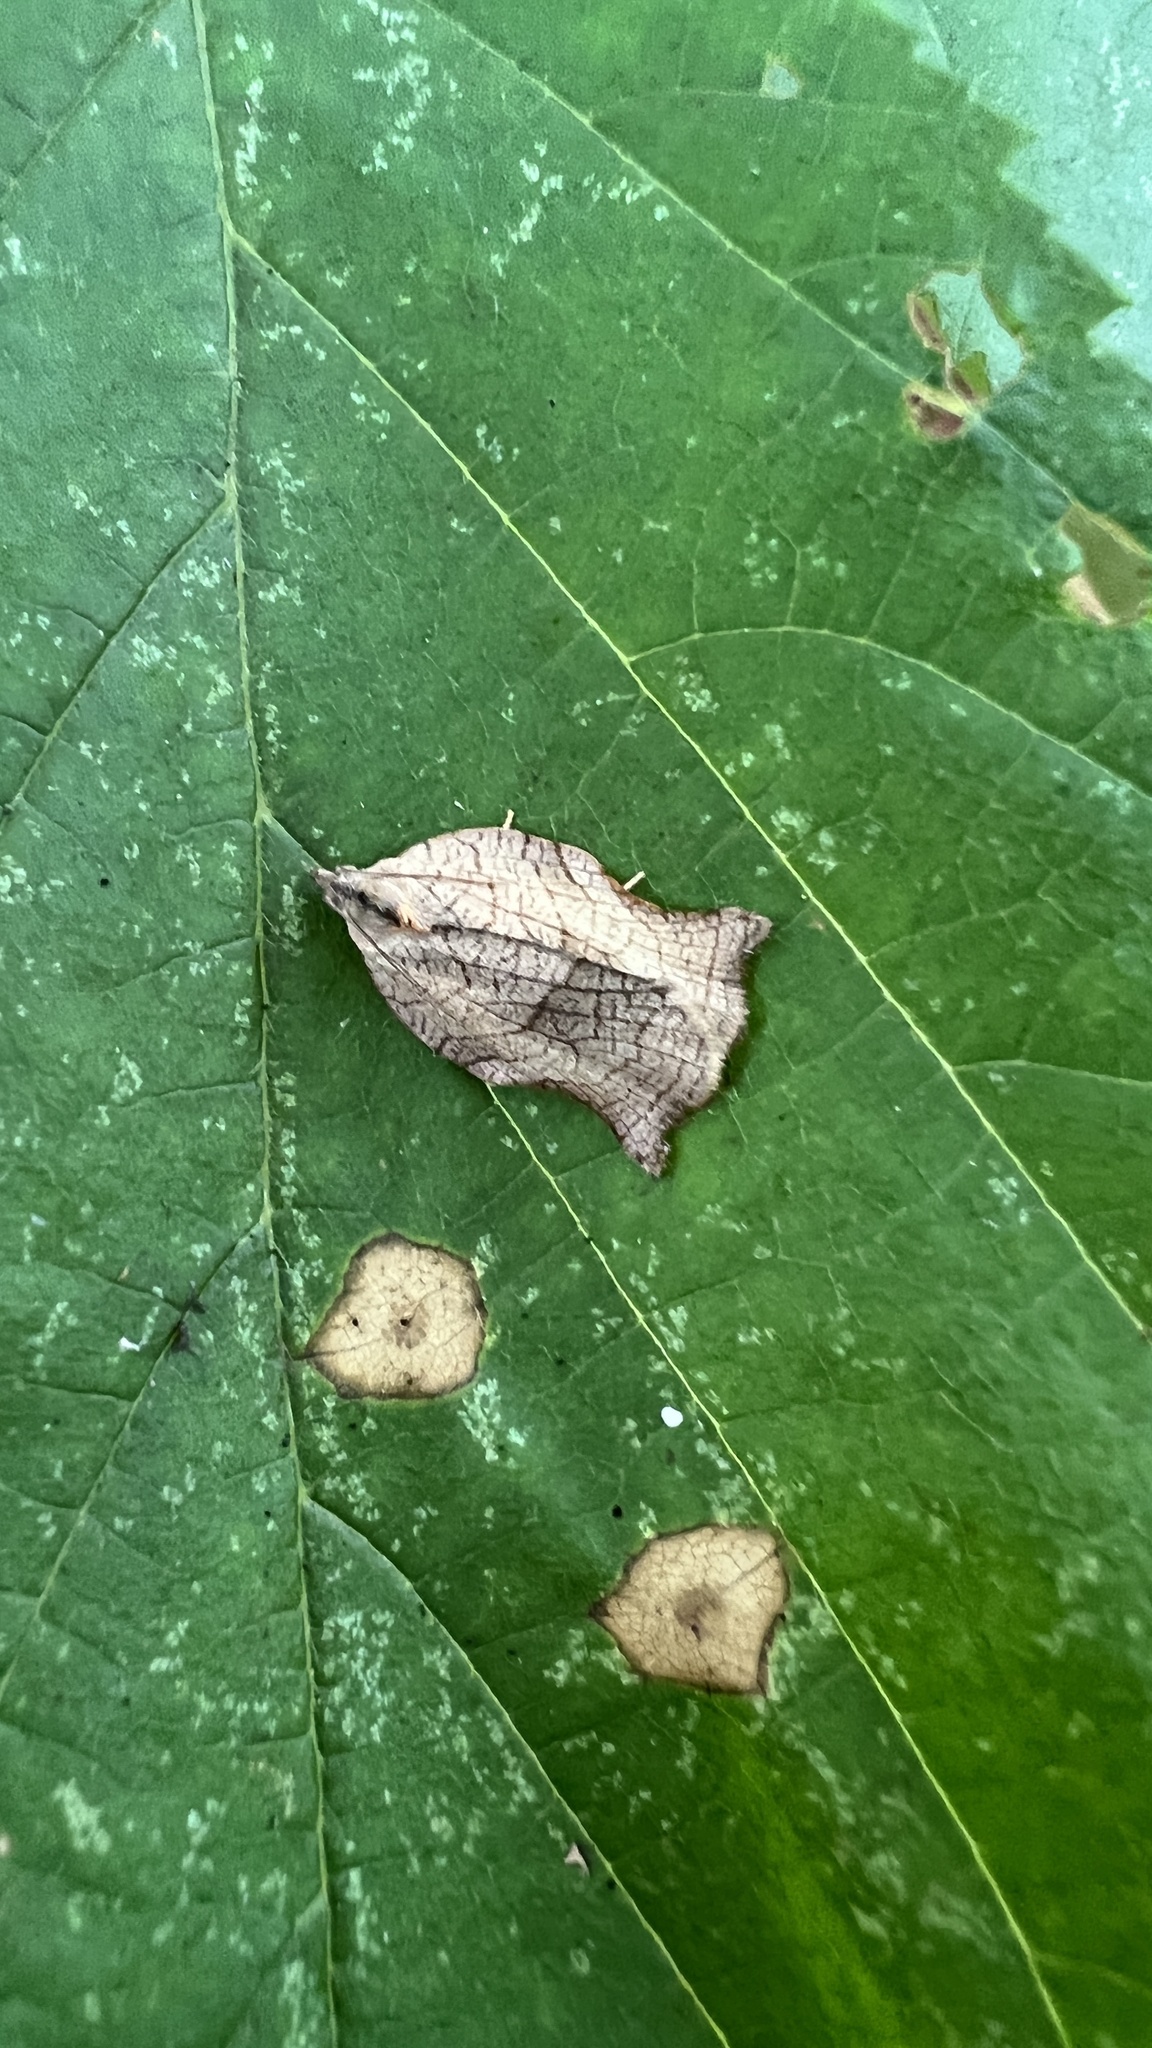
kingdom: Animalia
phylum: Arthropoda
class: Insecta
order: Lepidoptera
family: Tortricidae
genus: Archips
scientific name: Archips purpurana
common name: Omnivorous leafroller
